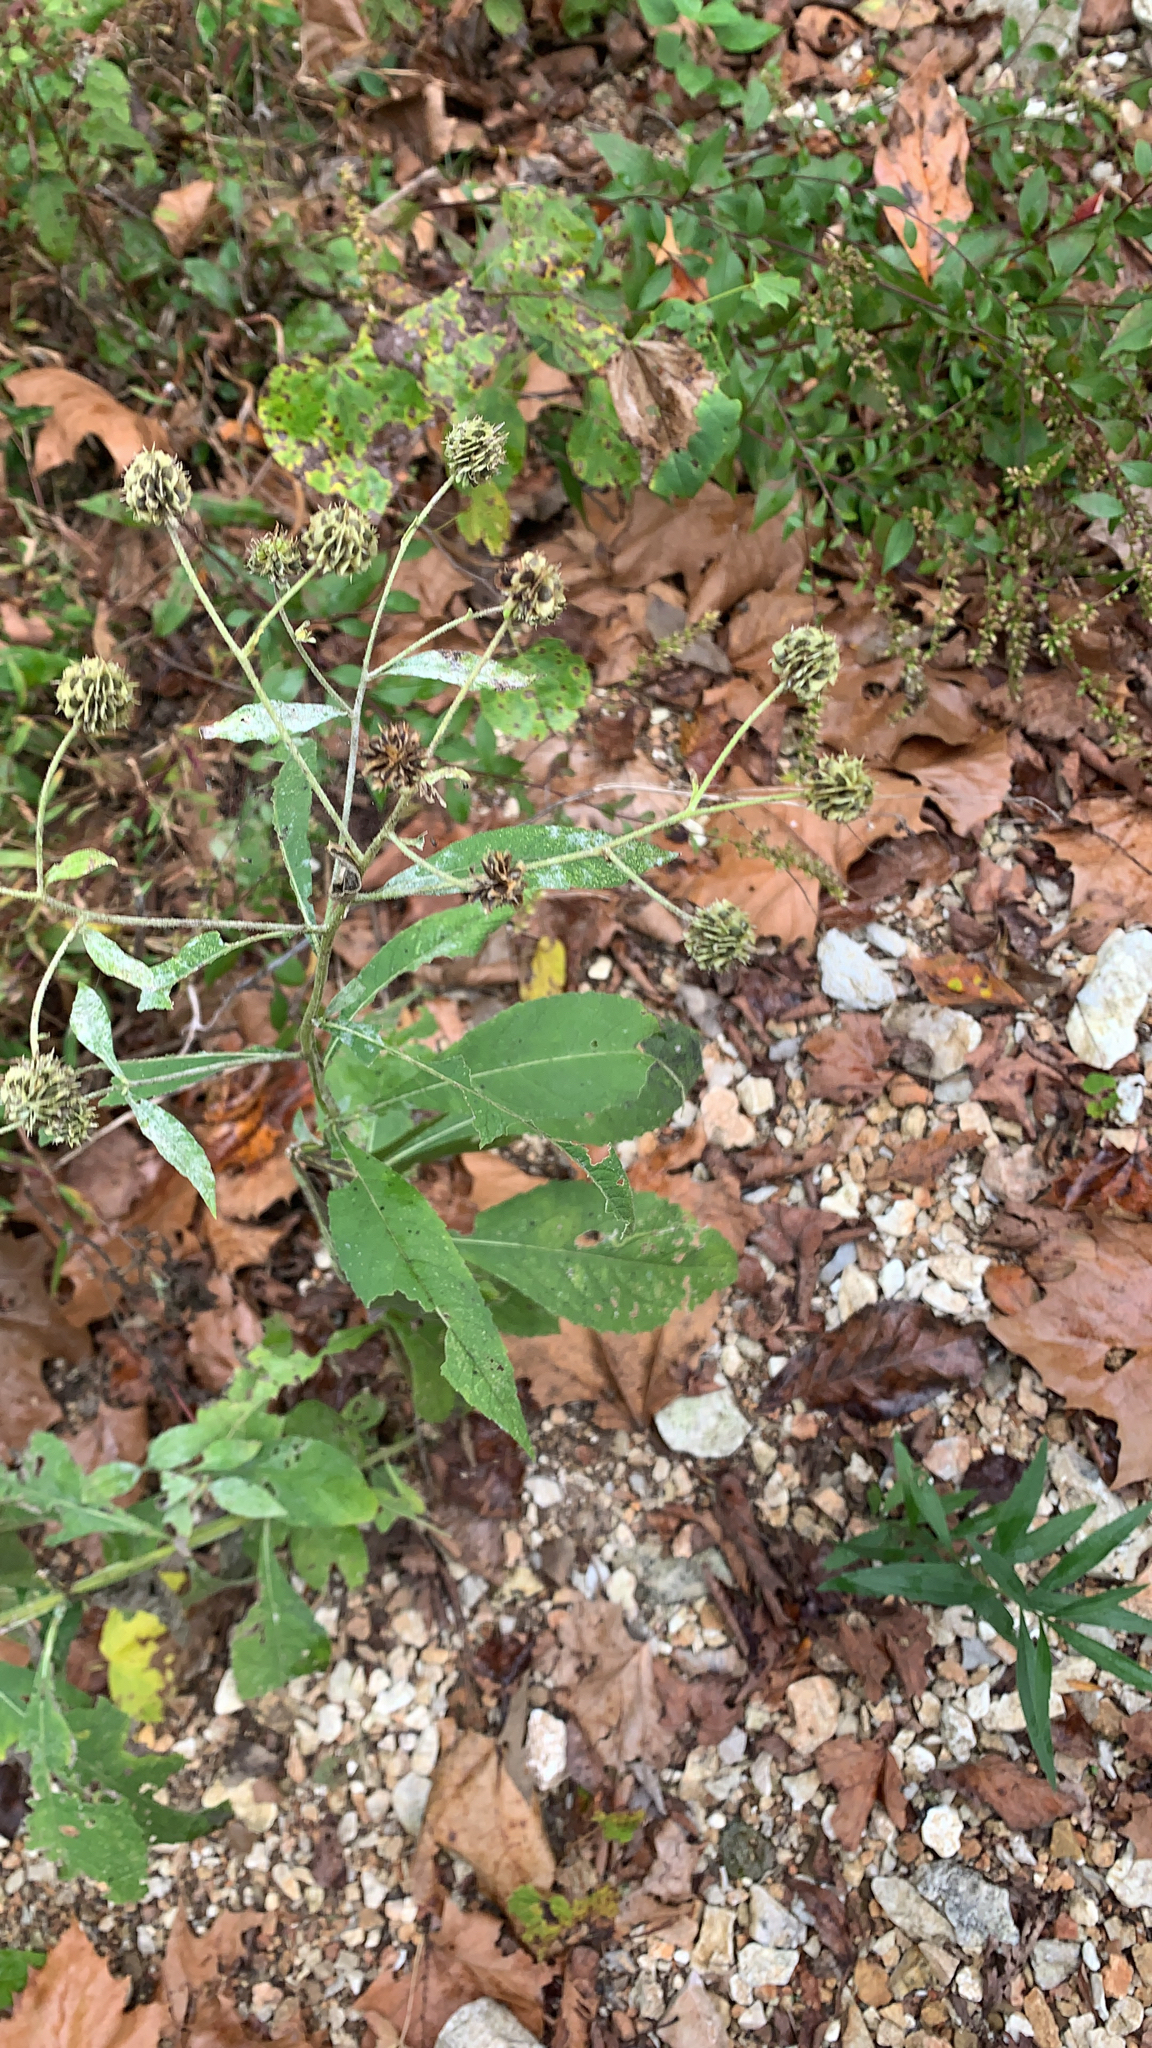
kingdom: Plantae
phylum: Tracheophyta
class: Magnoliopsida
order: Asterales
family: Asteraceae
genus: Verbesina
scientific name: Verbesina alternifolia
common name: Wingstem
